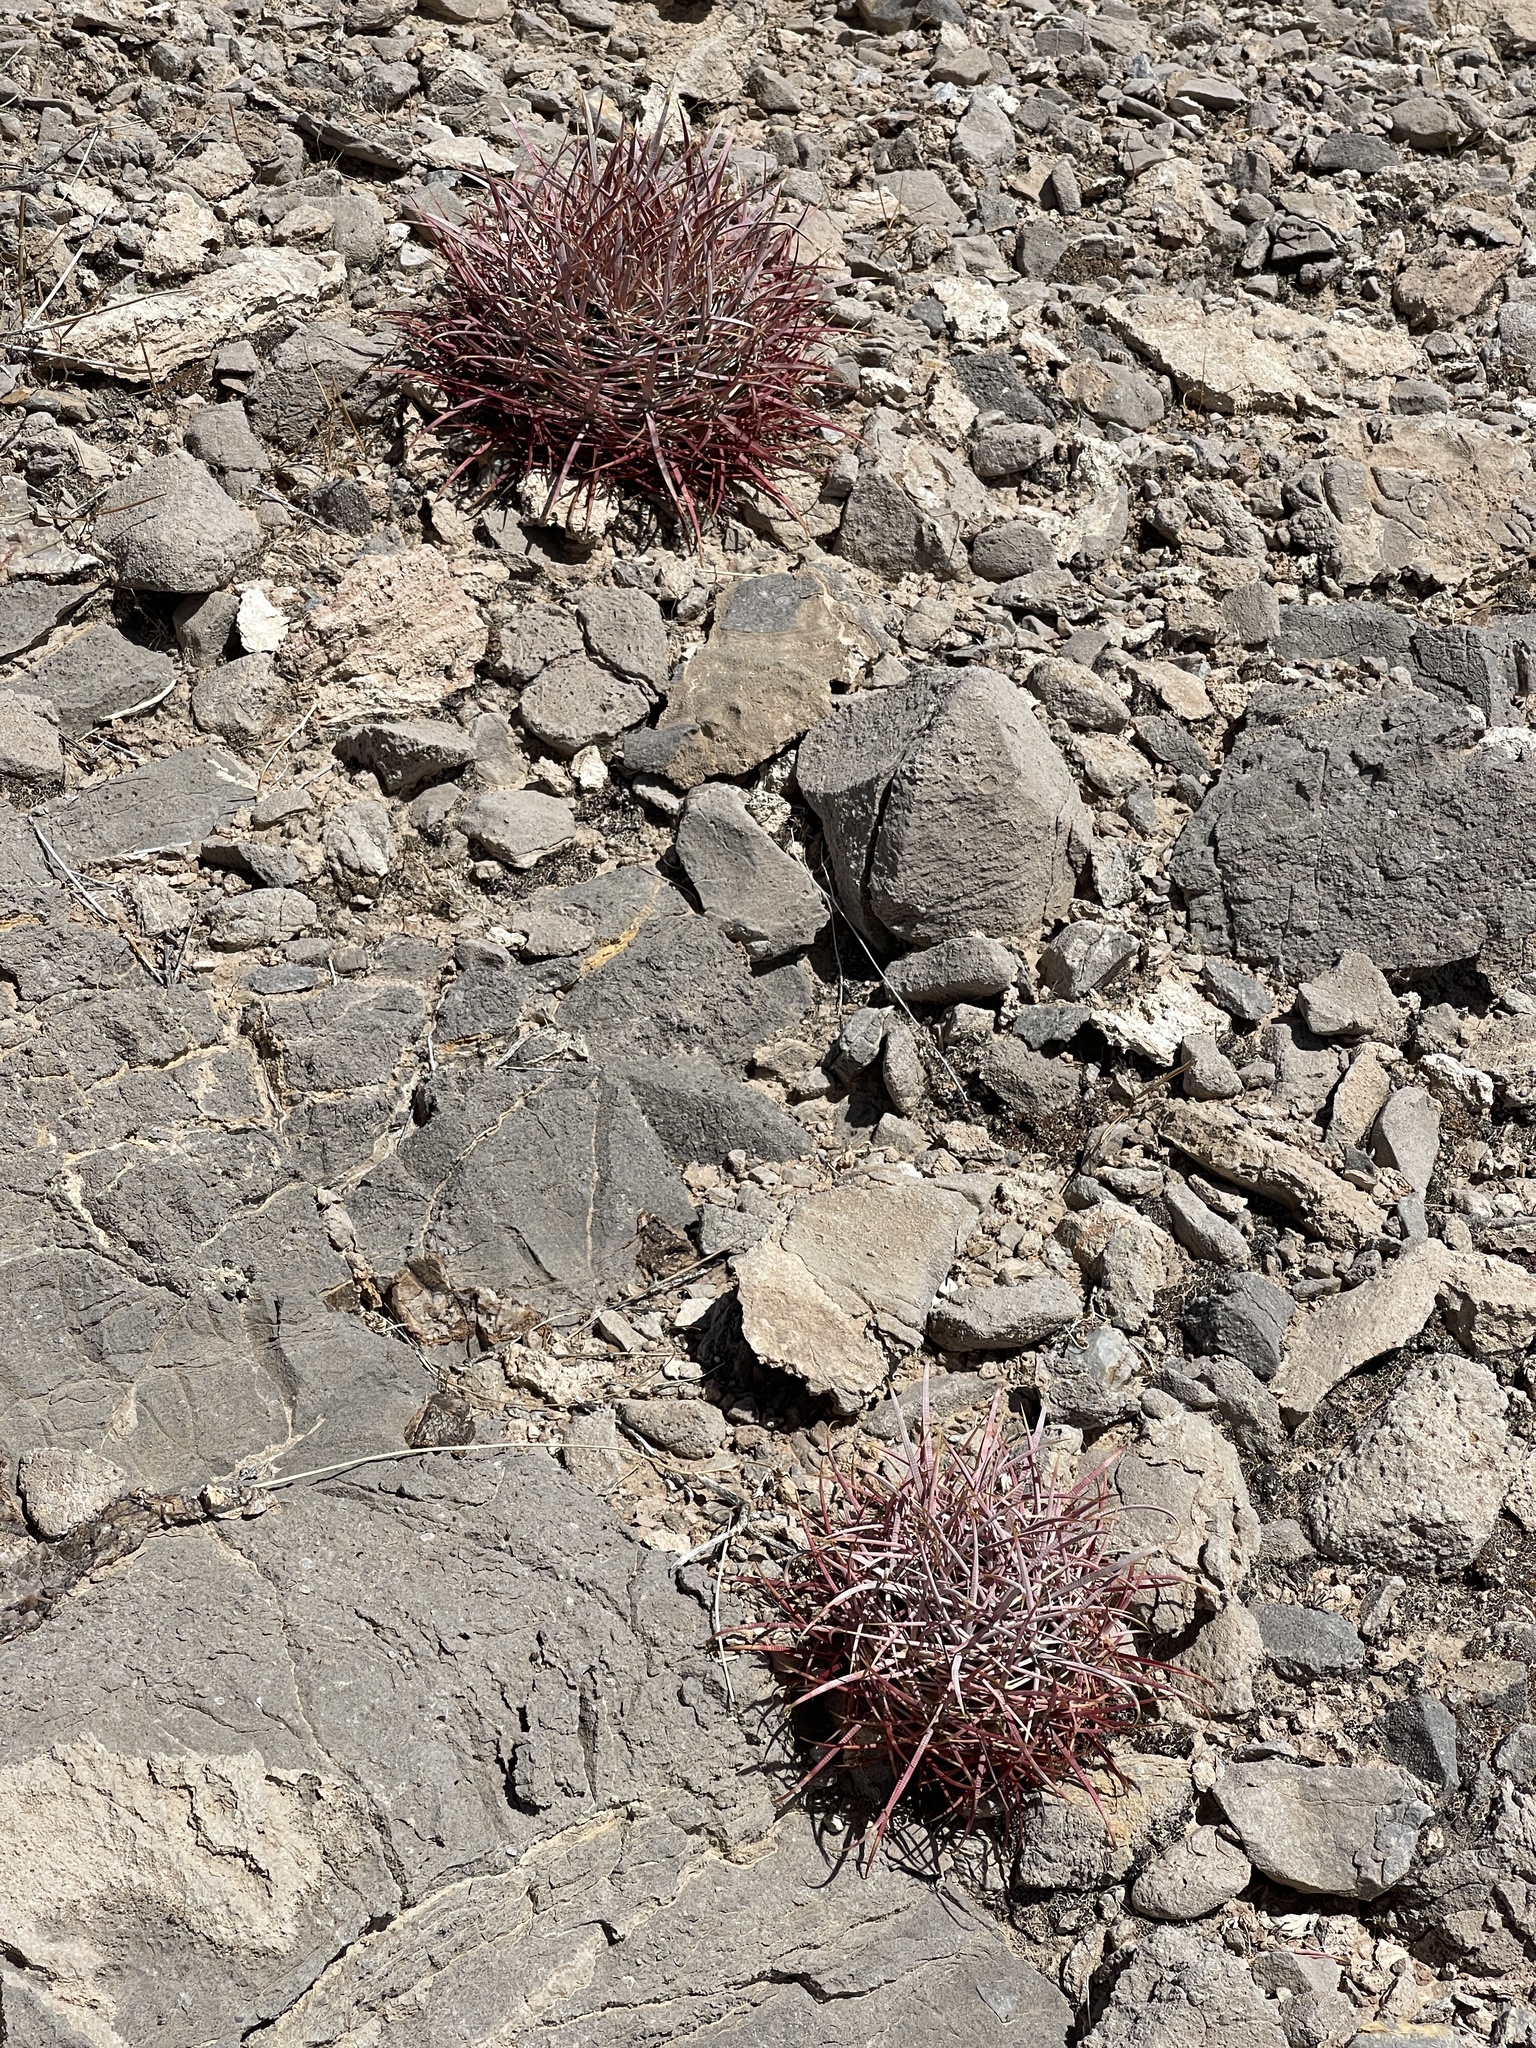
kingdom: Plantae
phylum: Tracheophyta
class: Magnoliopsida
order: Caryophyllales
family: Cactaceae
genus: Ferocactus
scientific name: Ferocactus cylindraceus
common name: California barrel cactus
